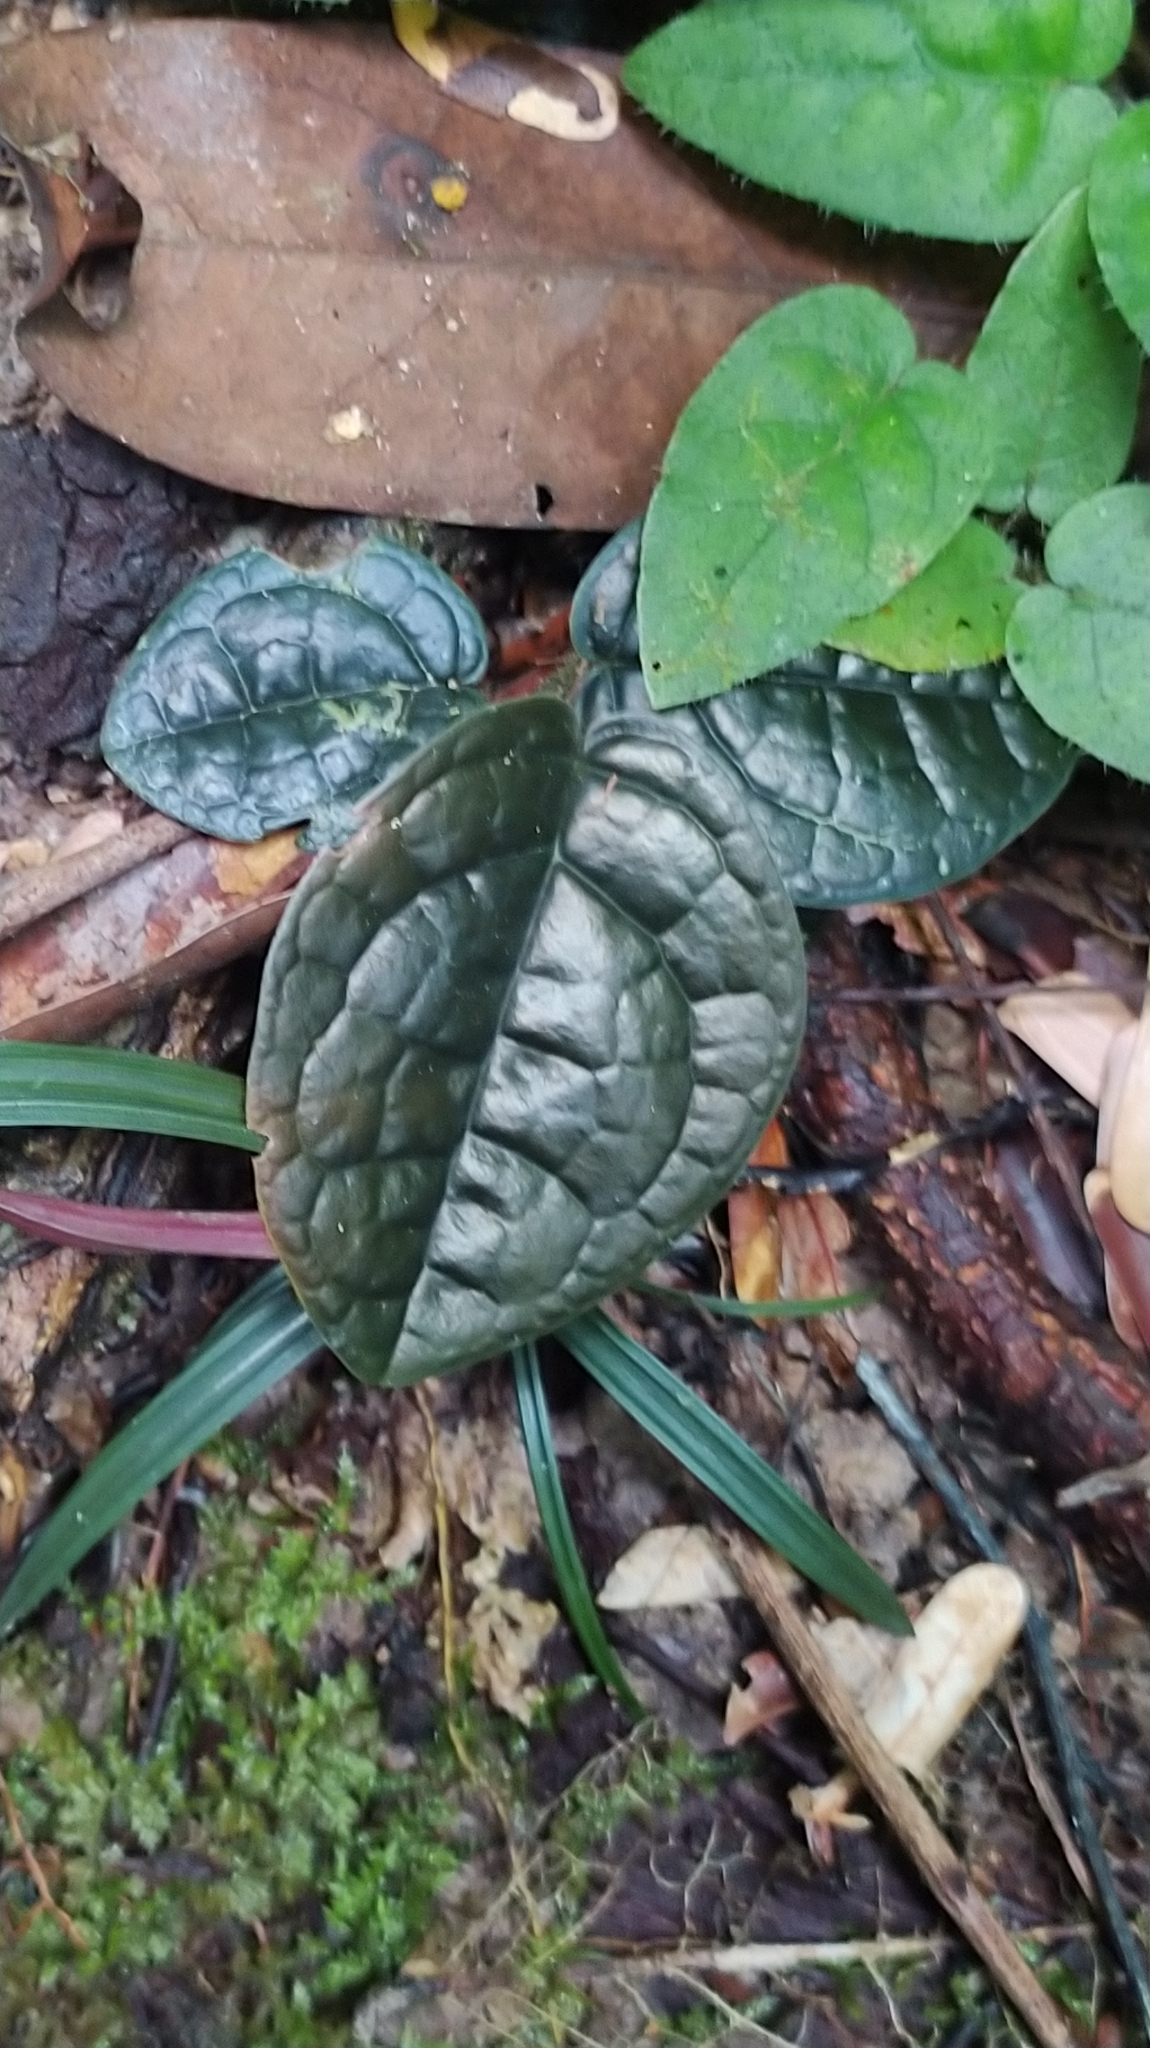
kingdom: Plantae
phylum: Tracheophyta
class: Magnoliopsida
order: Piperales
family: Piperaceae
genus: Piper
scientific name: Piper humistratum
